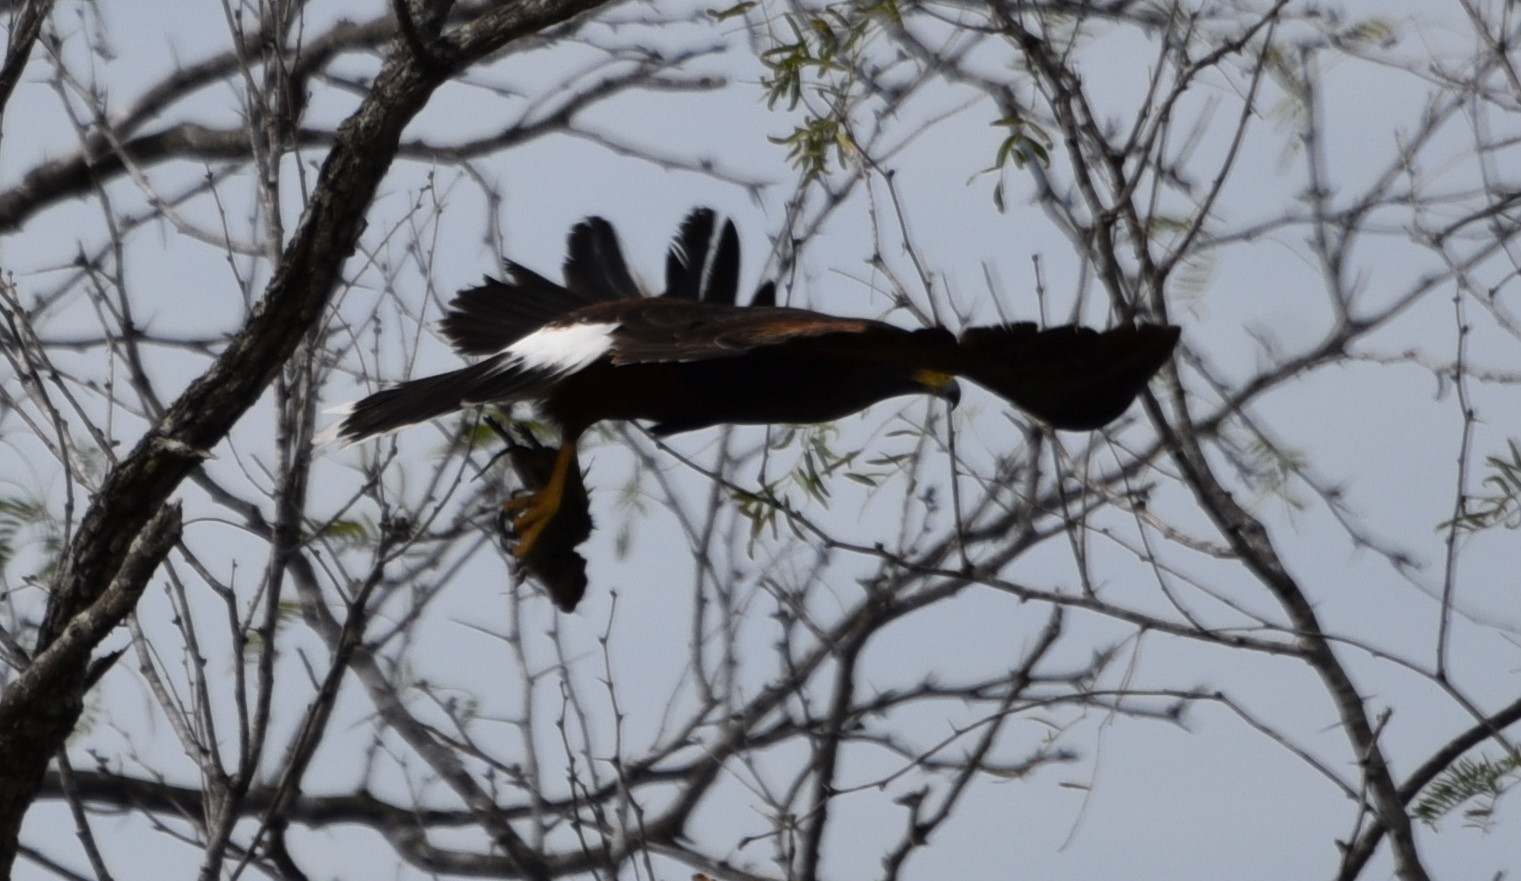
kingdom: Animalia
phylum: Chordata
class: Aves
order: Accipitriformes
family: Accipitridae
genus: Parabuteo
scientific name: Parabuteo unicinctus
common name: Harris's hawk
